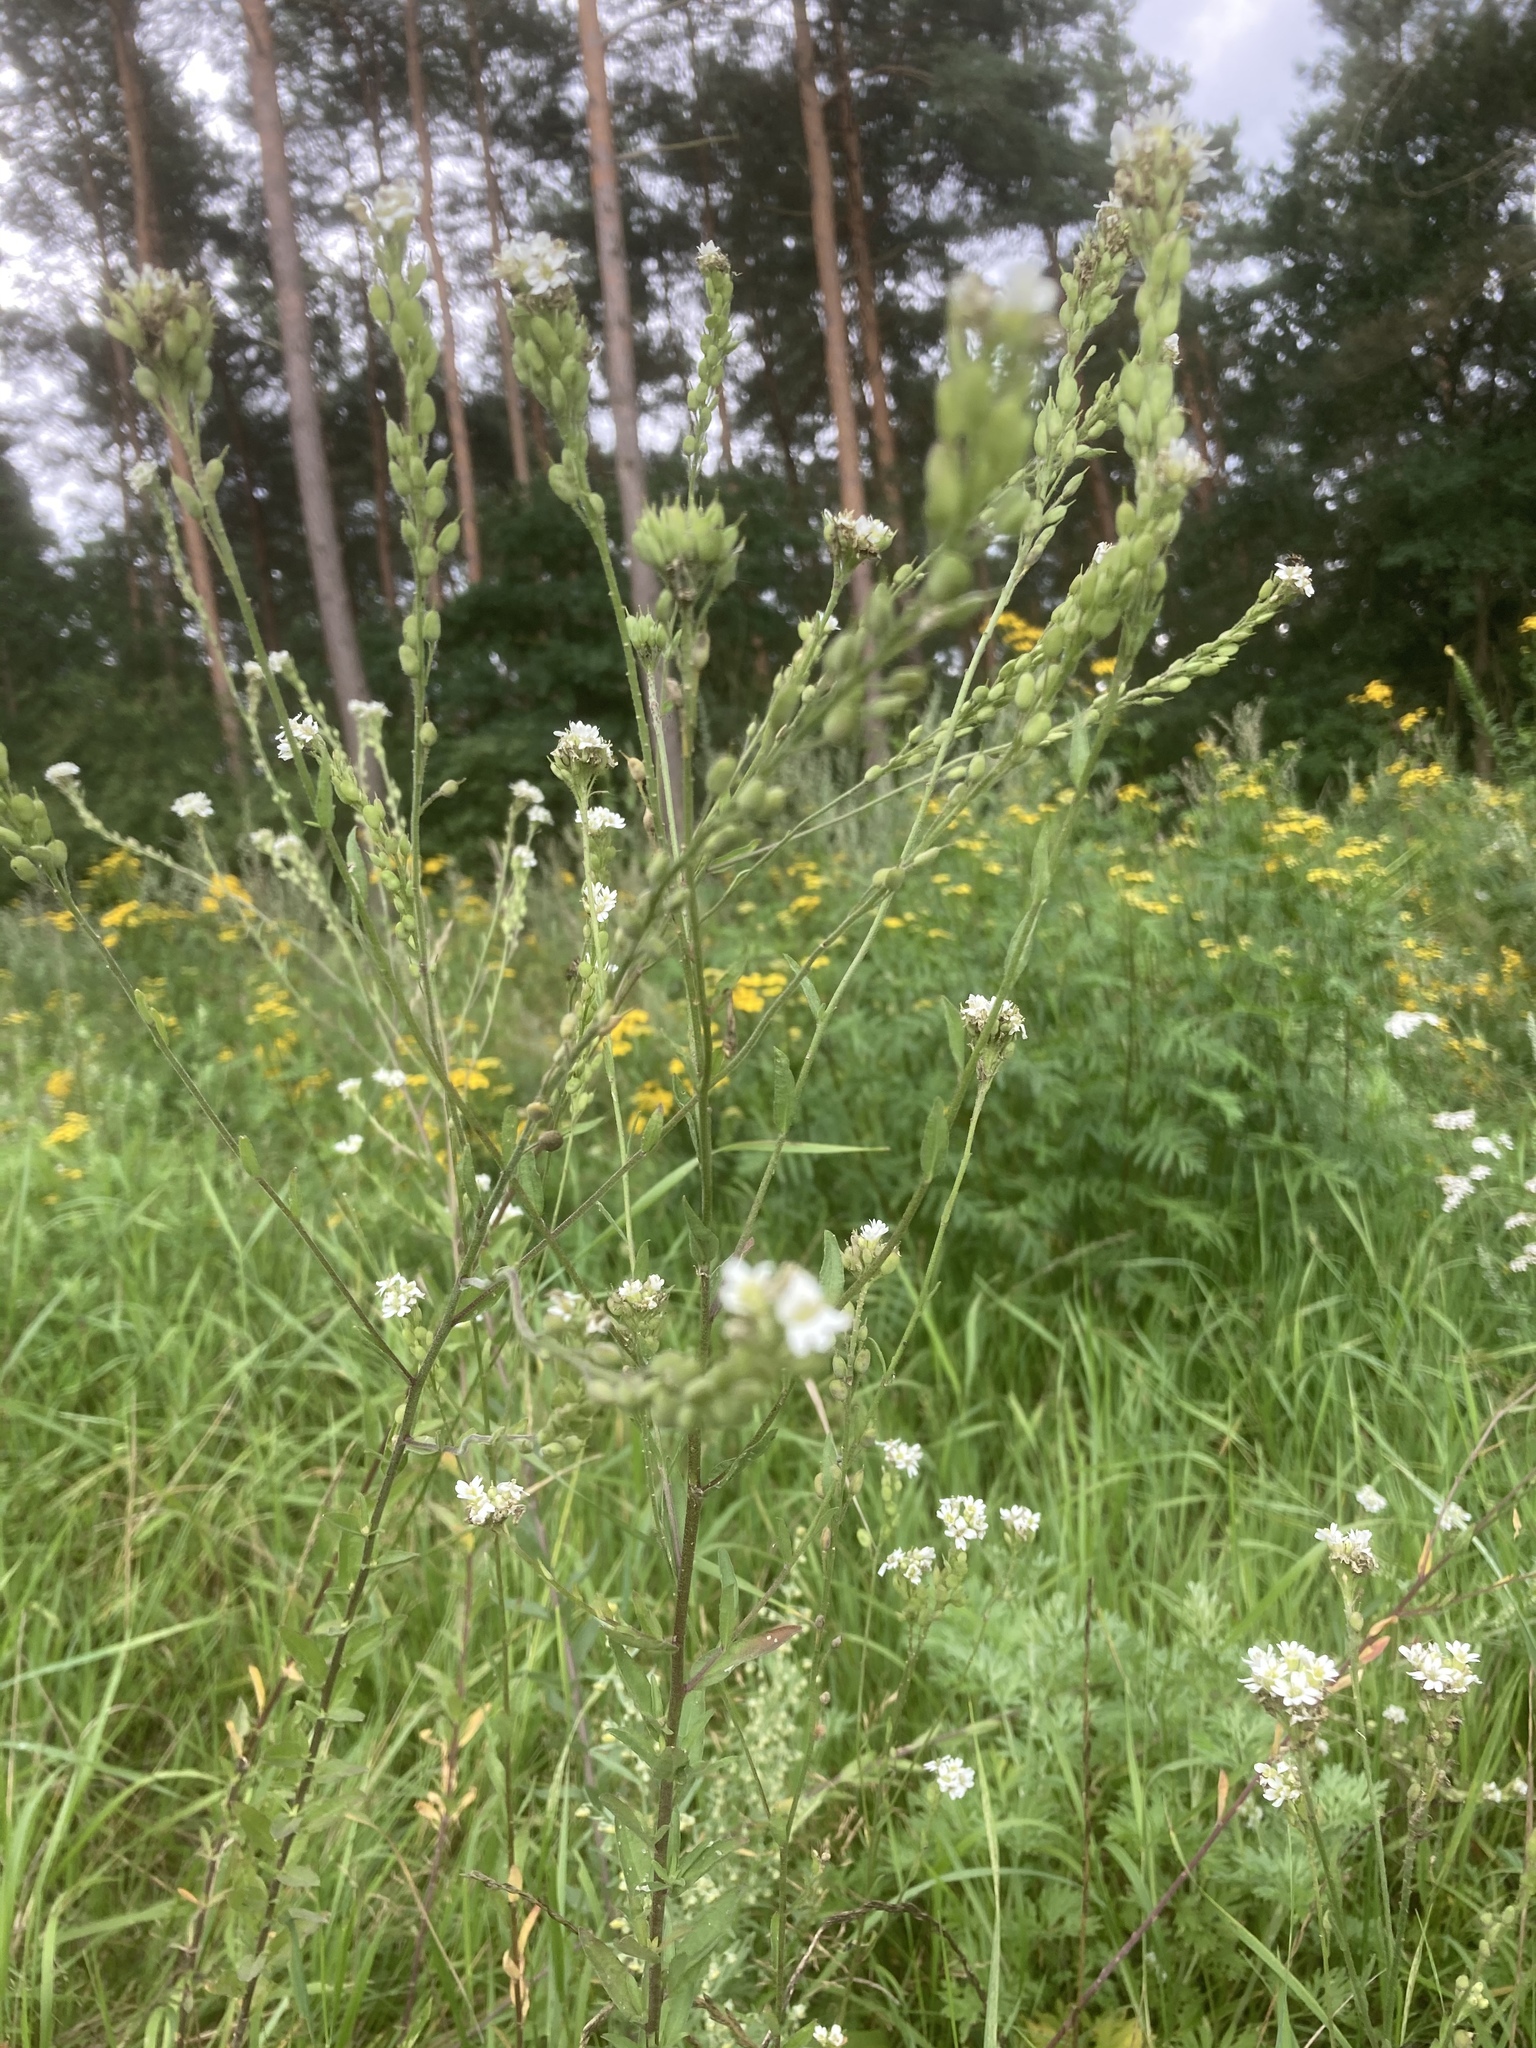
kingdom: Plantae
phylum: Tracheophyta
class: Magnoliopsida
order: Brassicales
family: Brassicaceae
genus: Berteroa
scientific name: Berteroa incana
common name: Hoary alison
